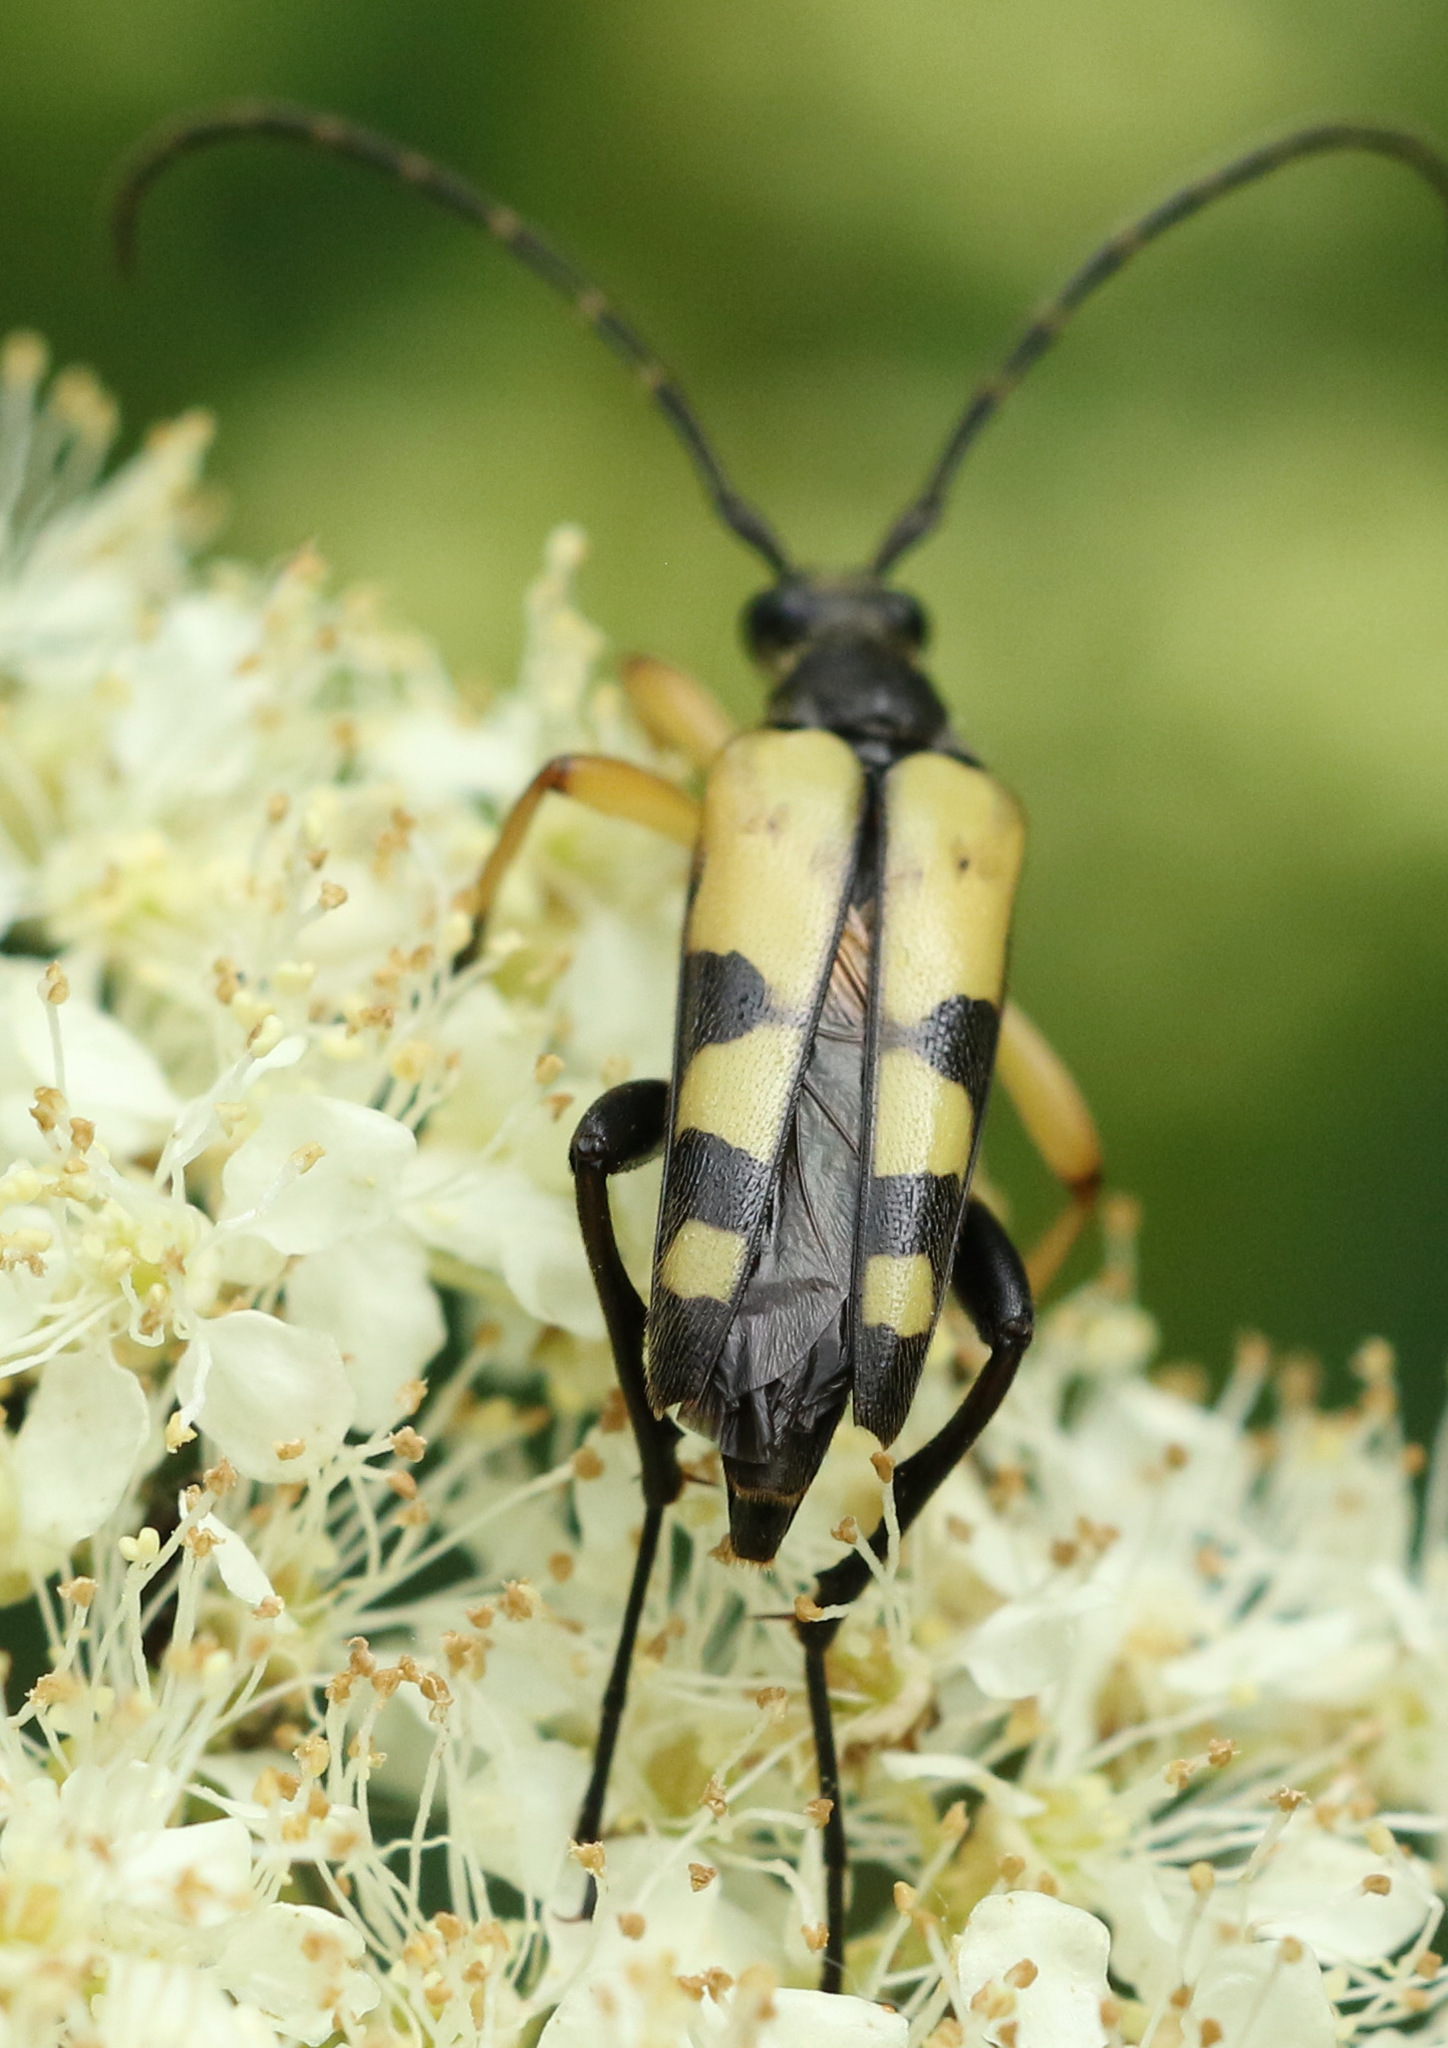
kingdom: Animalia
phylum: Arthropoda
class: Insecta
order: Coleoptera
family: Cerambycidae
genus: Rutpela
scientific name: Rutpela maculata
